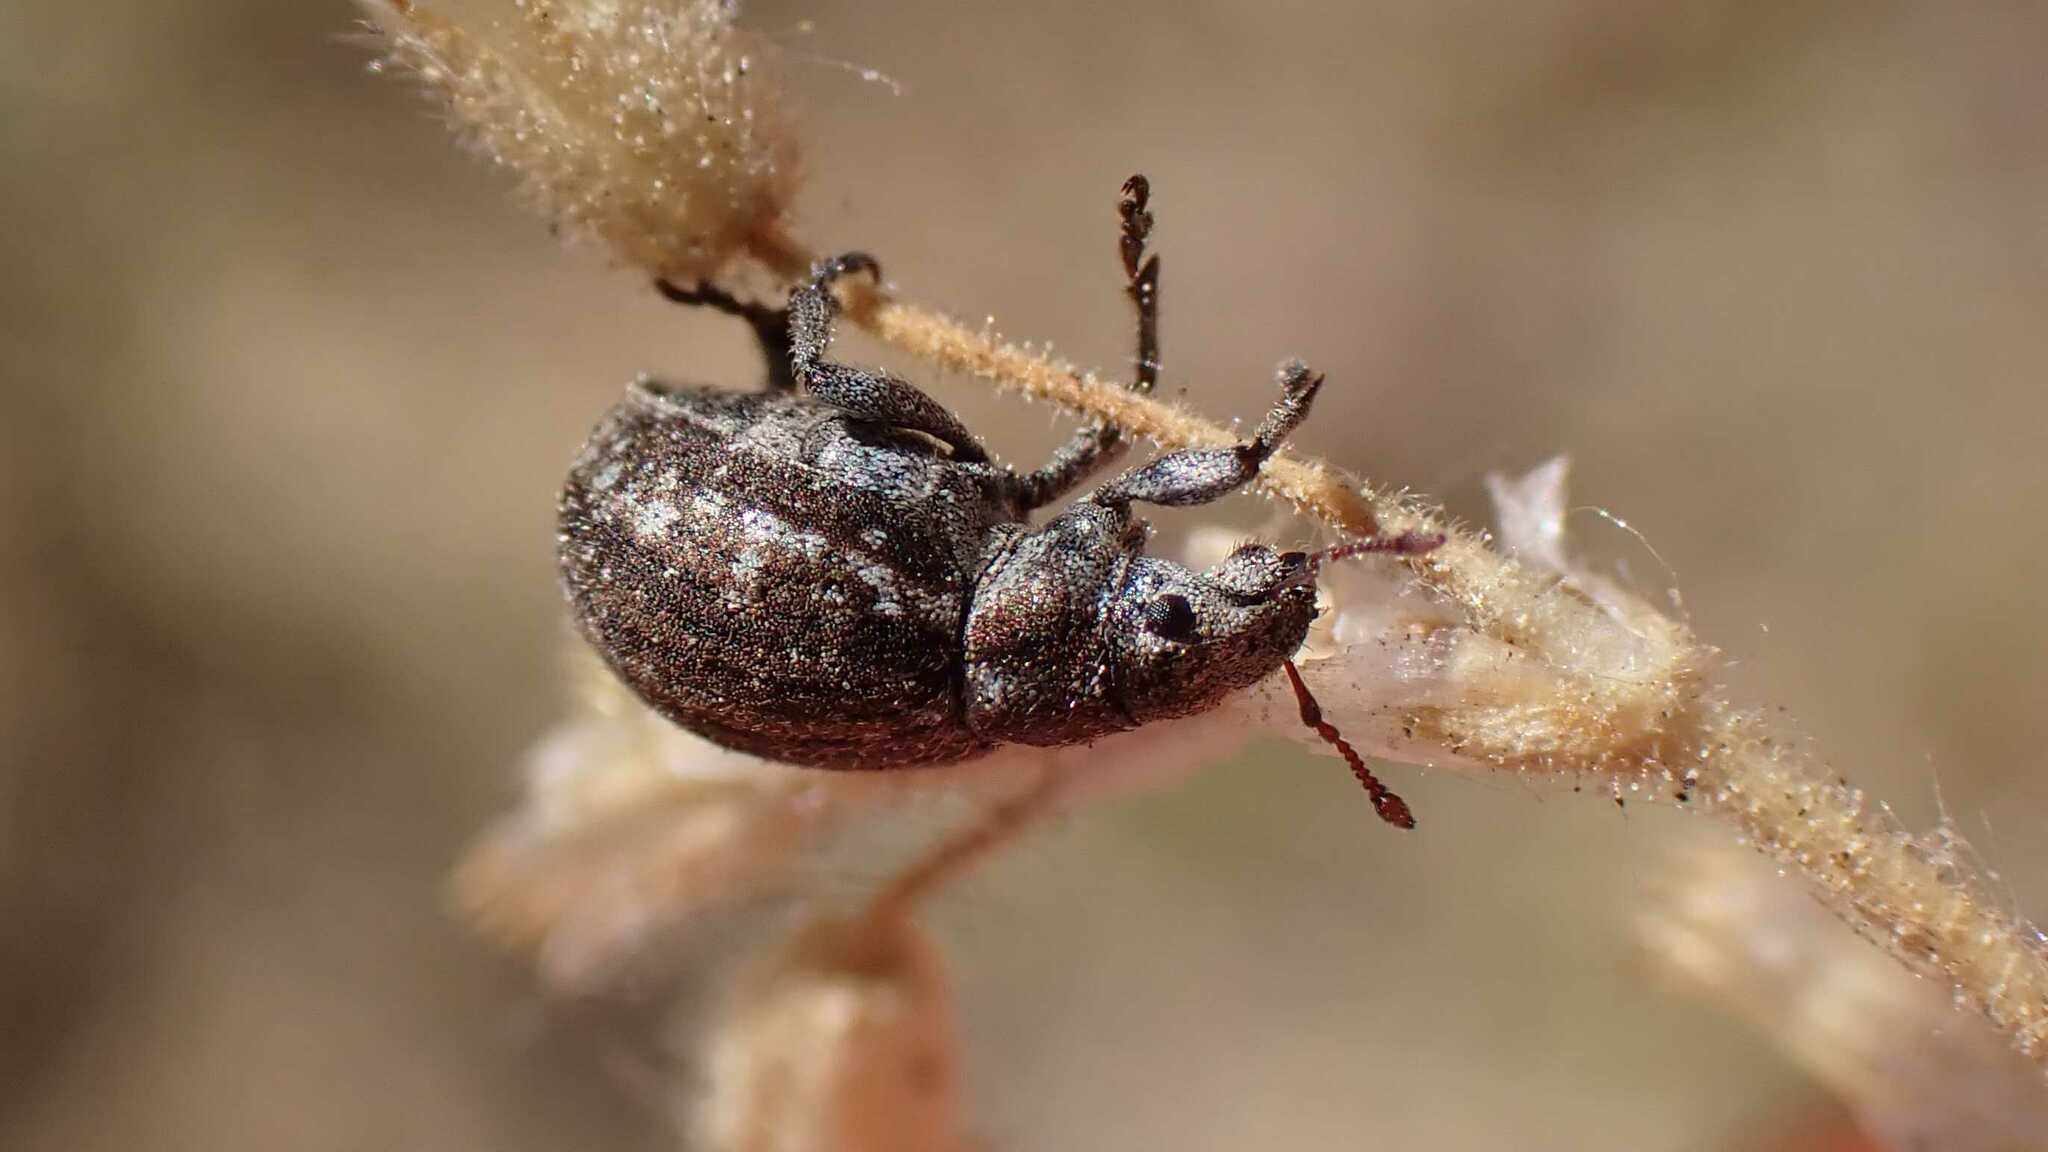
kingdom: Animalia
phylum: Arthropoda
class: Insecta
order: Coleoptera
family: Curculionidae
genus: Philopedon
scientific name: Philopedon plagiatum
